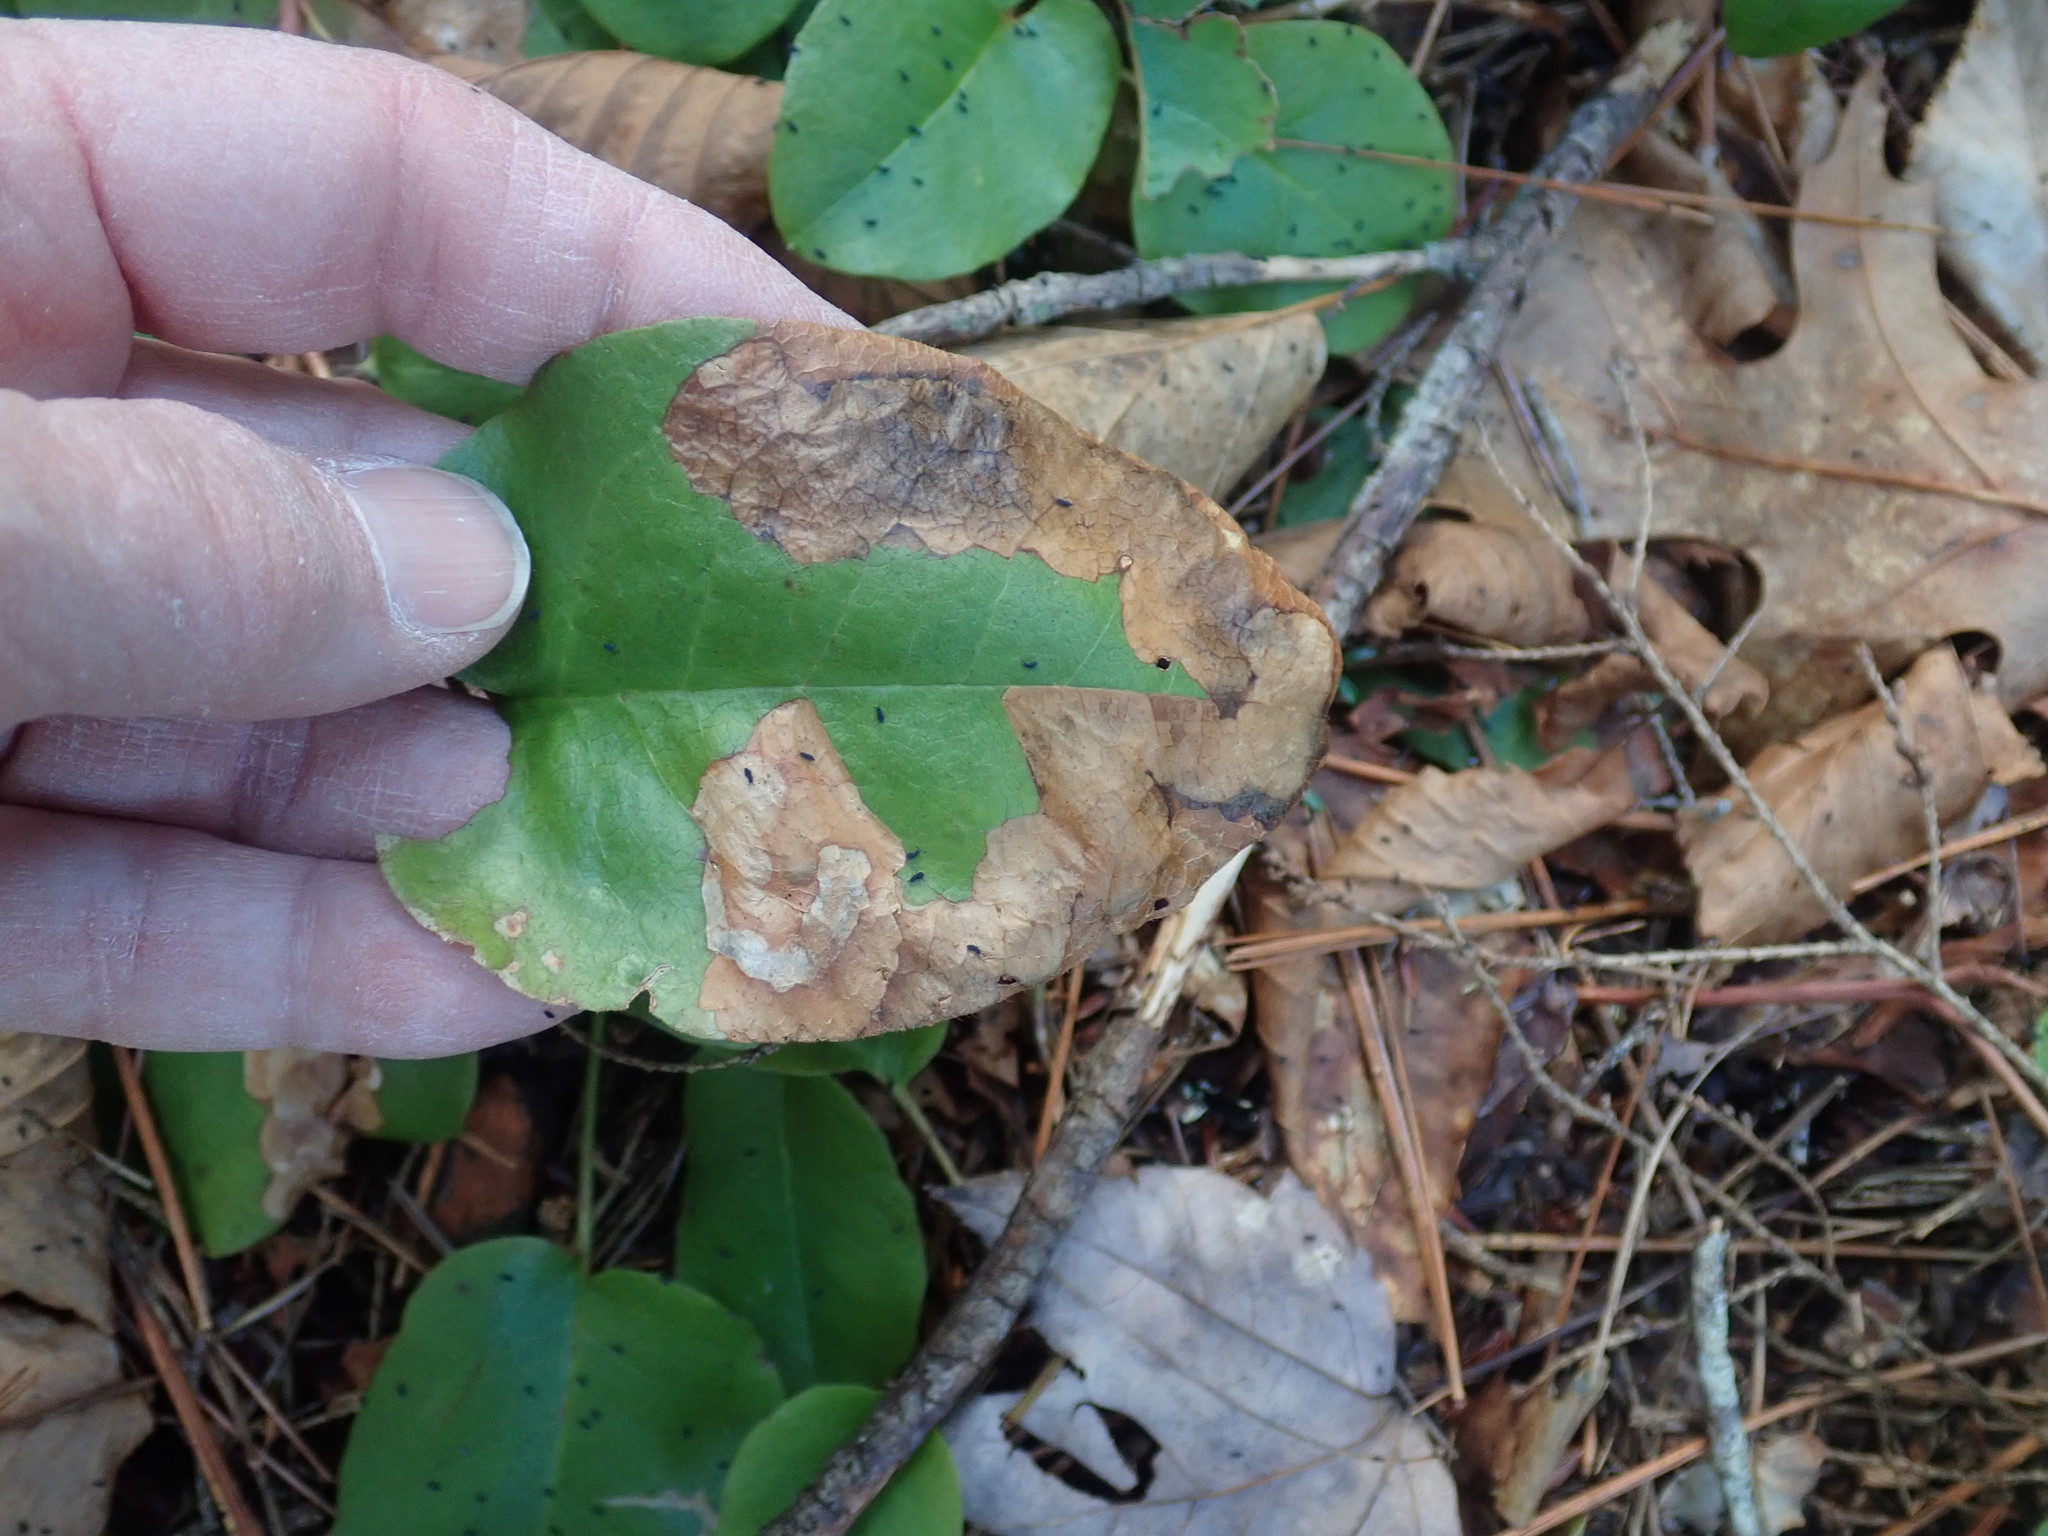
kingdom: Animalia
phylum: Arthropoda
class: Insecta
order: Coleoptera
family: Buprestidae
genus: Brachys
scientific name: Brachys
